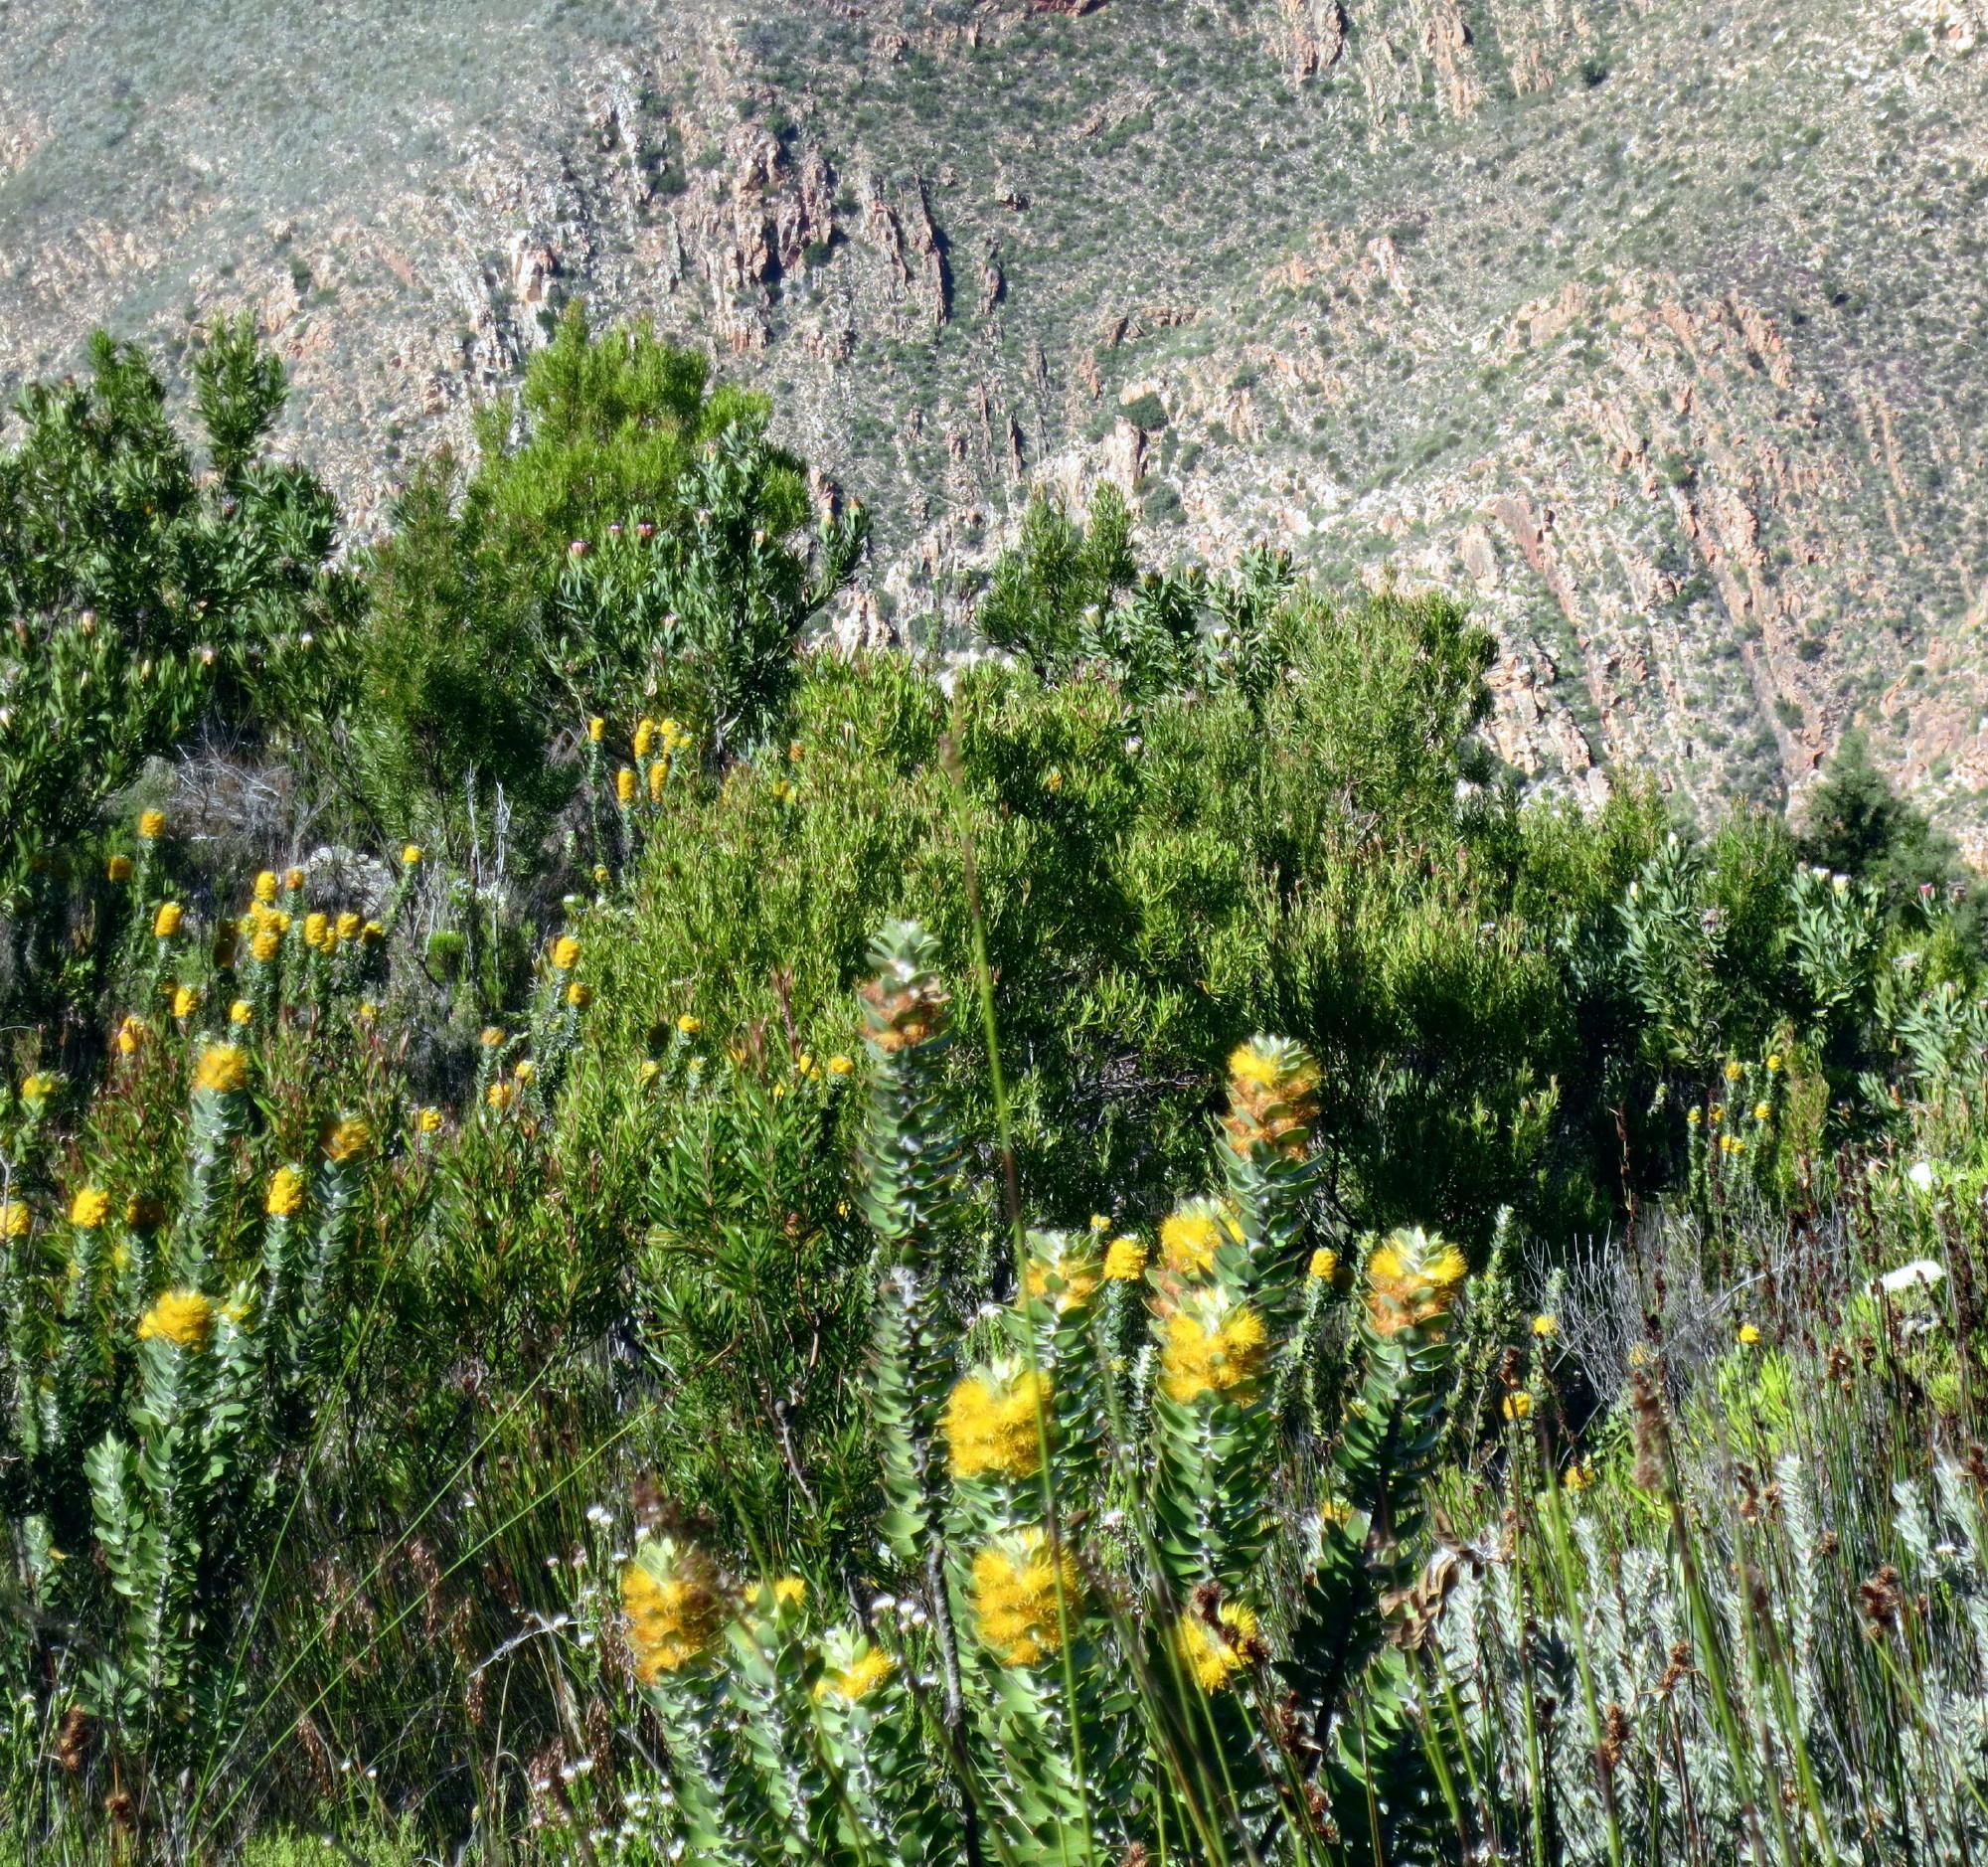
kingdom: Plantae
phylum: Tracheophyta
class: Magnoliopsida
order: Proteales
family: Proteaceae
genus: Mimetes
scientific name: Mimetes chrysanthus
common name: Golden pagoda
